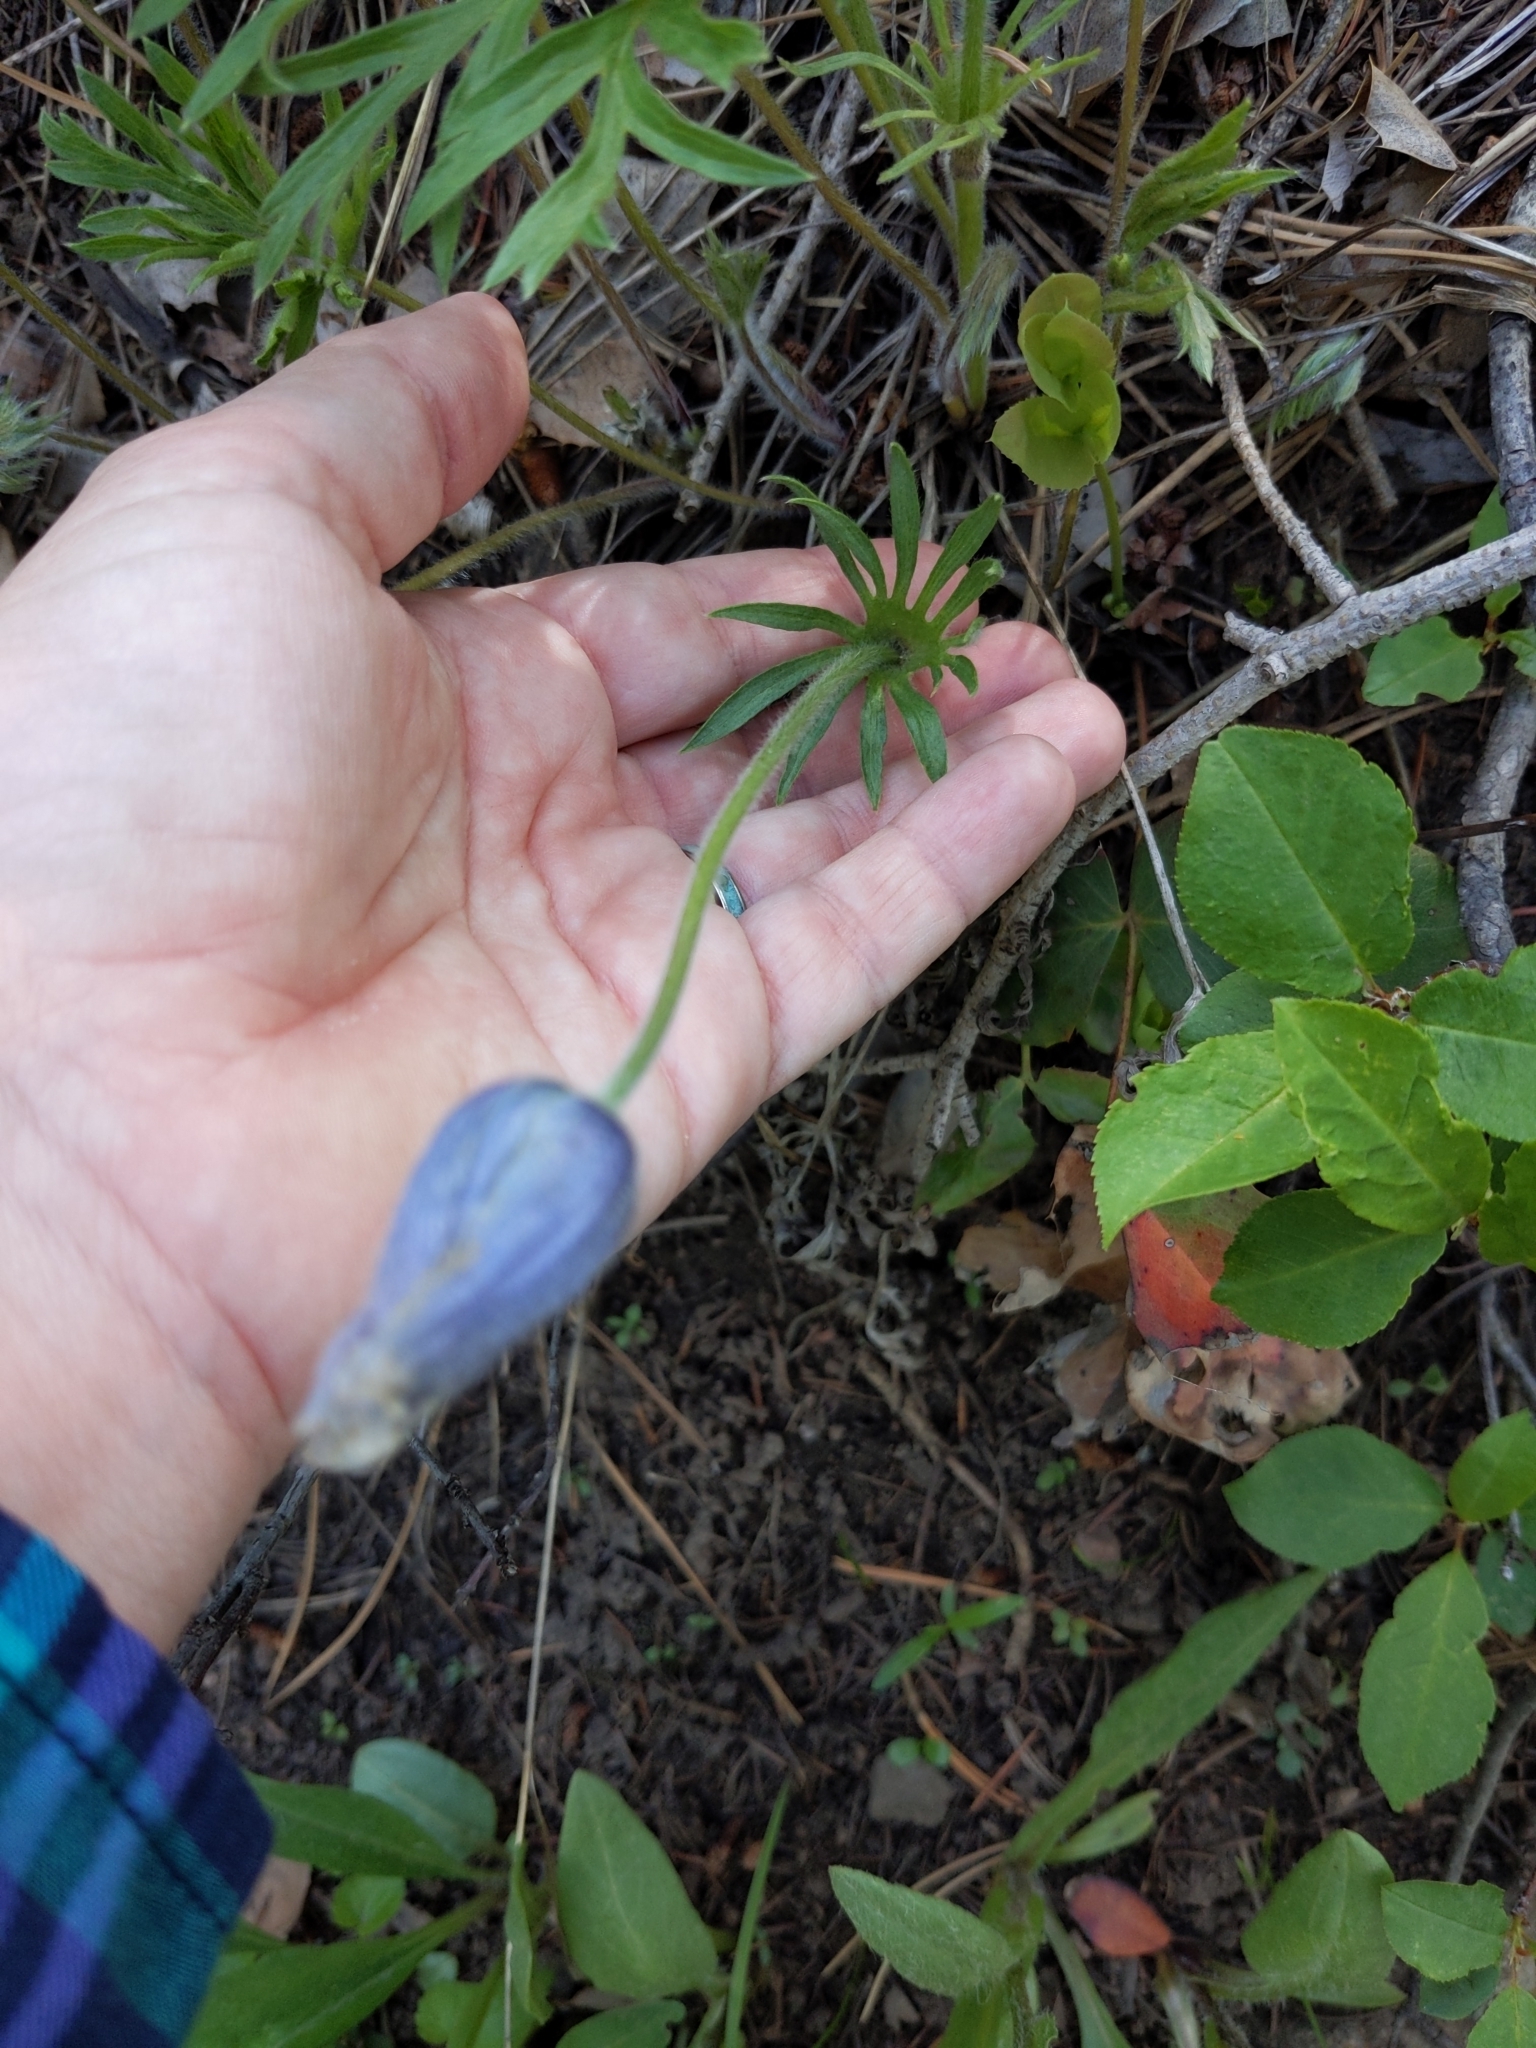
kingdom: Plantae
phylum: Tracheophyta
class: Magnoliopsida
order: Ranunculales
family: Ranunculaceae
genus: Pulsatilla
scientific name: Pulsatilla nuttalliana
